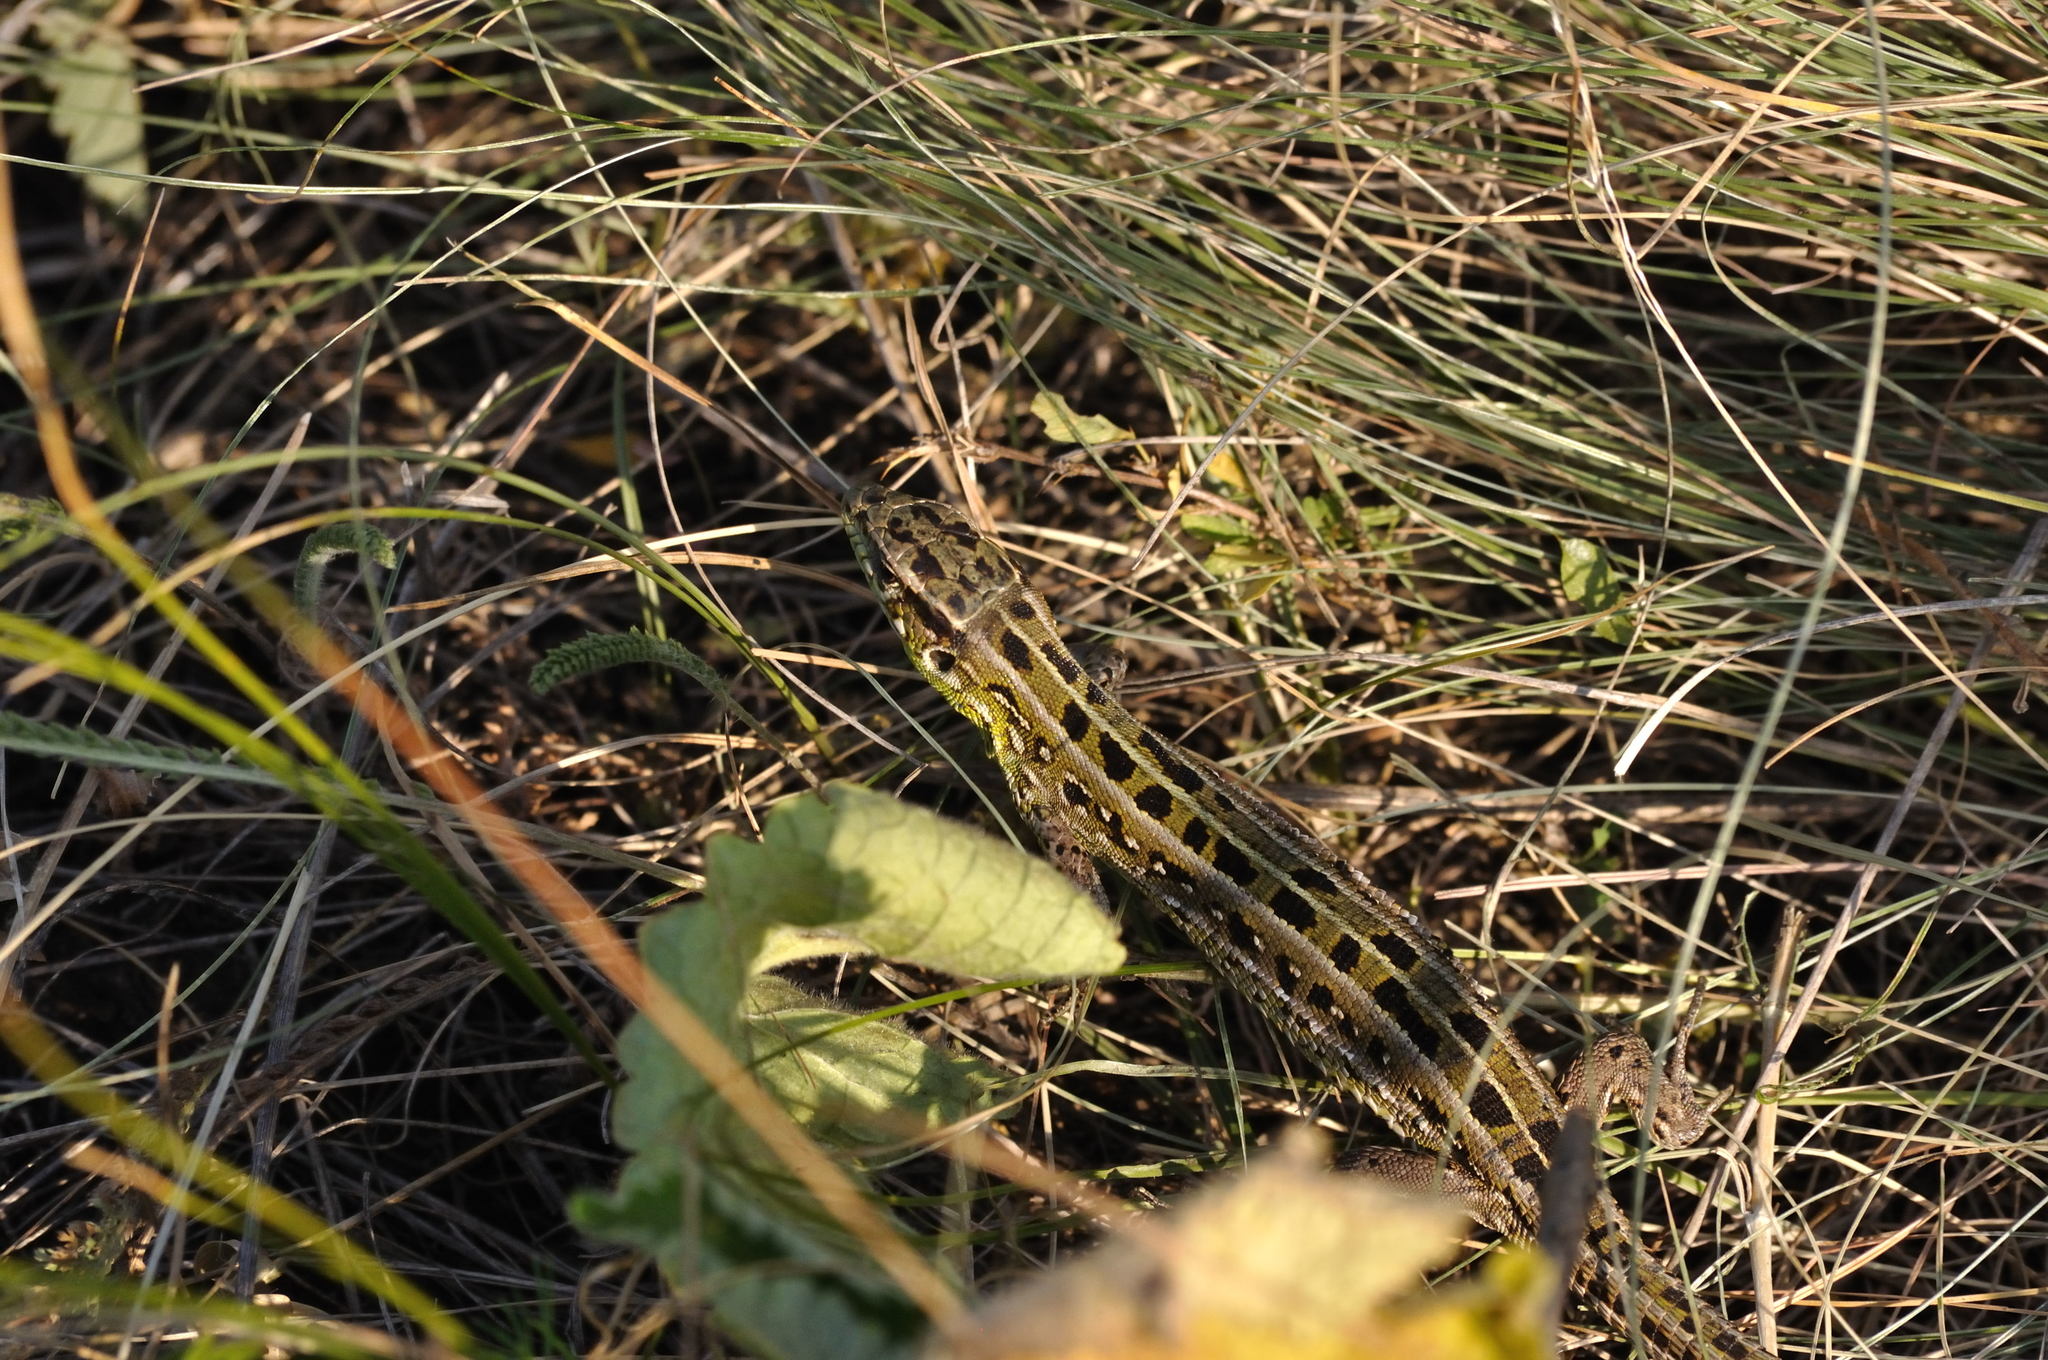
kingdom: Animalia
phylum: Chordata
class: Squamata
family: Lacertidae
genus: Lacerta
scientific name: Lacerta agilis
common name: Sand lizard
